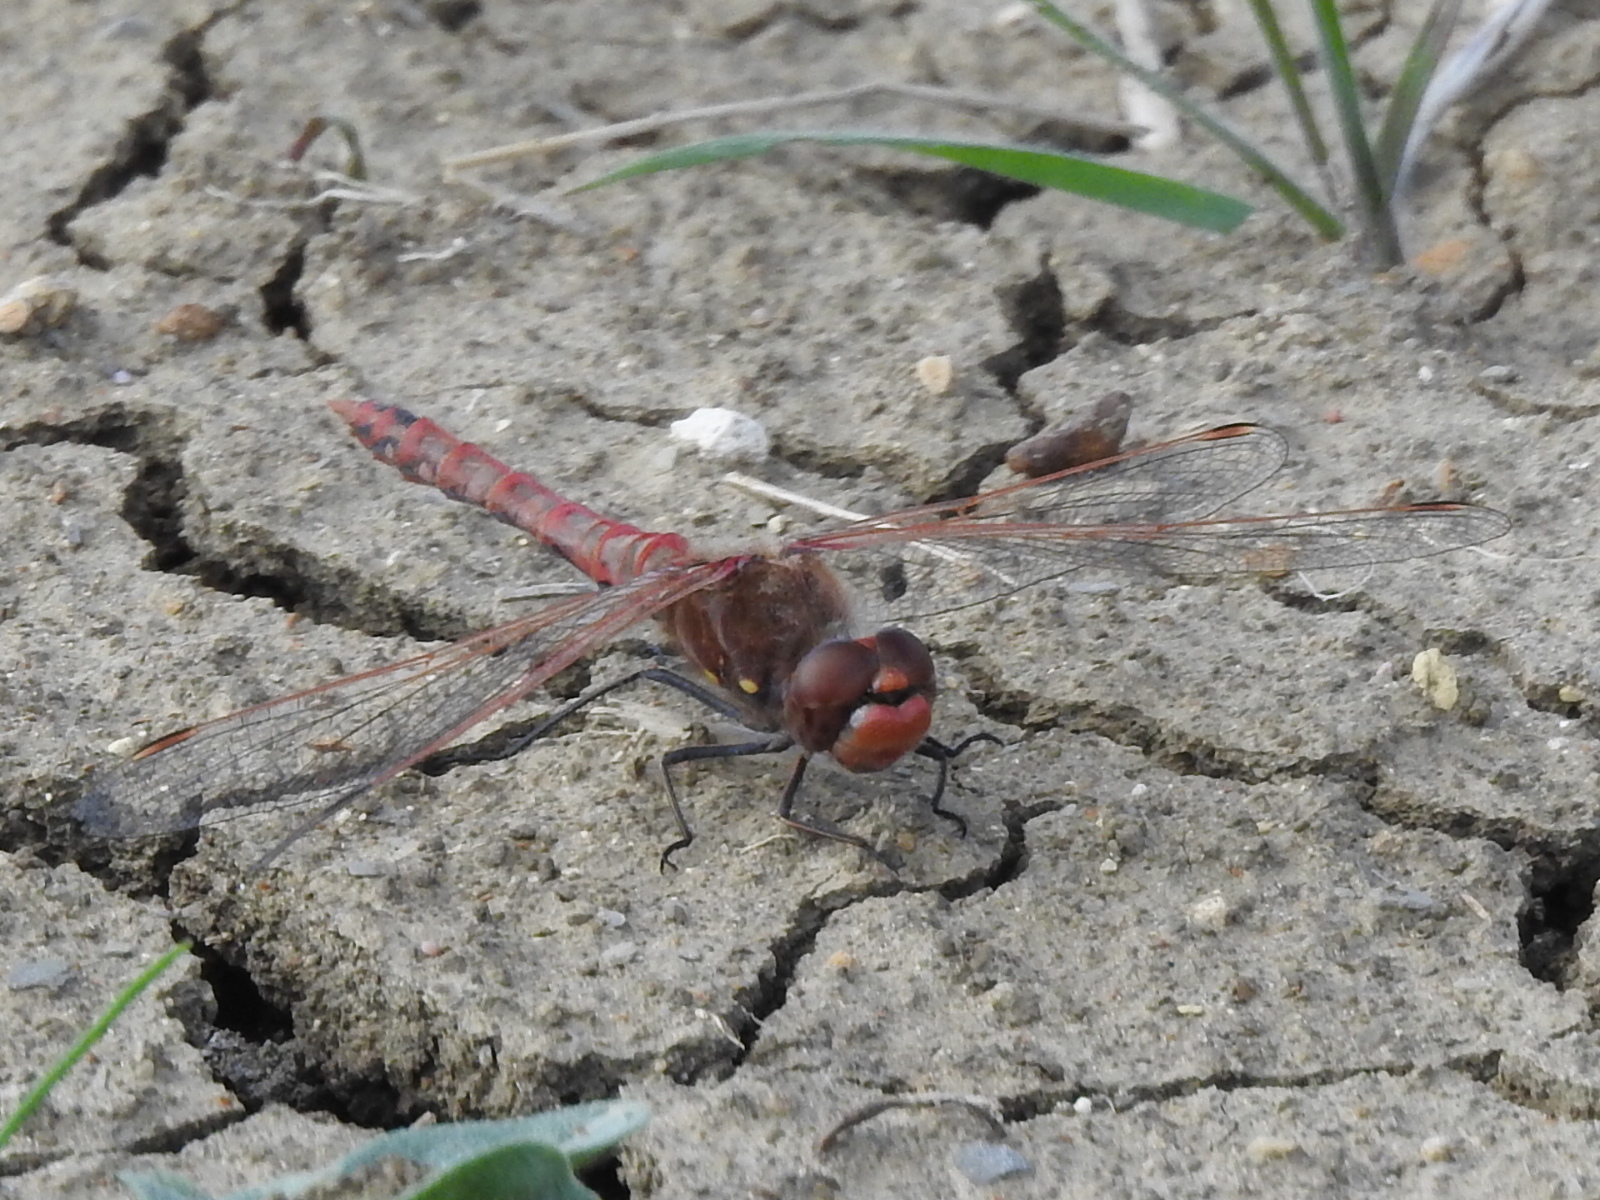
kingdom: Animalia
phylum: Arthropoda
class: Insecta
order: Odonata
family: Libellulidae
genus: Sympetrum
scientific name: Sympetrum corruptum
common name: Variegated meadowhawk
